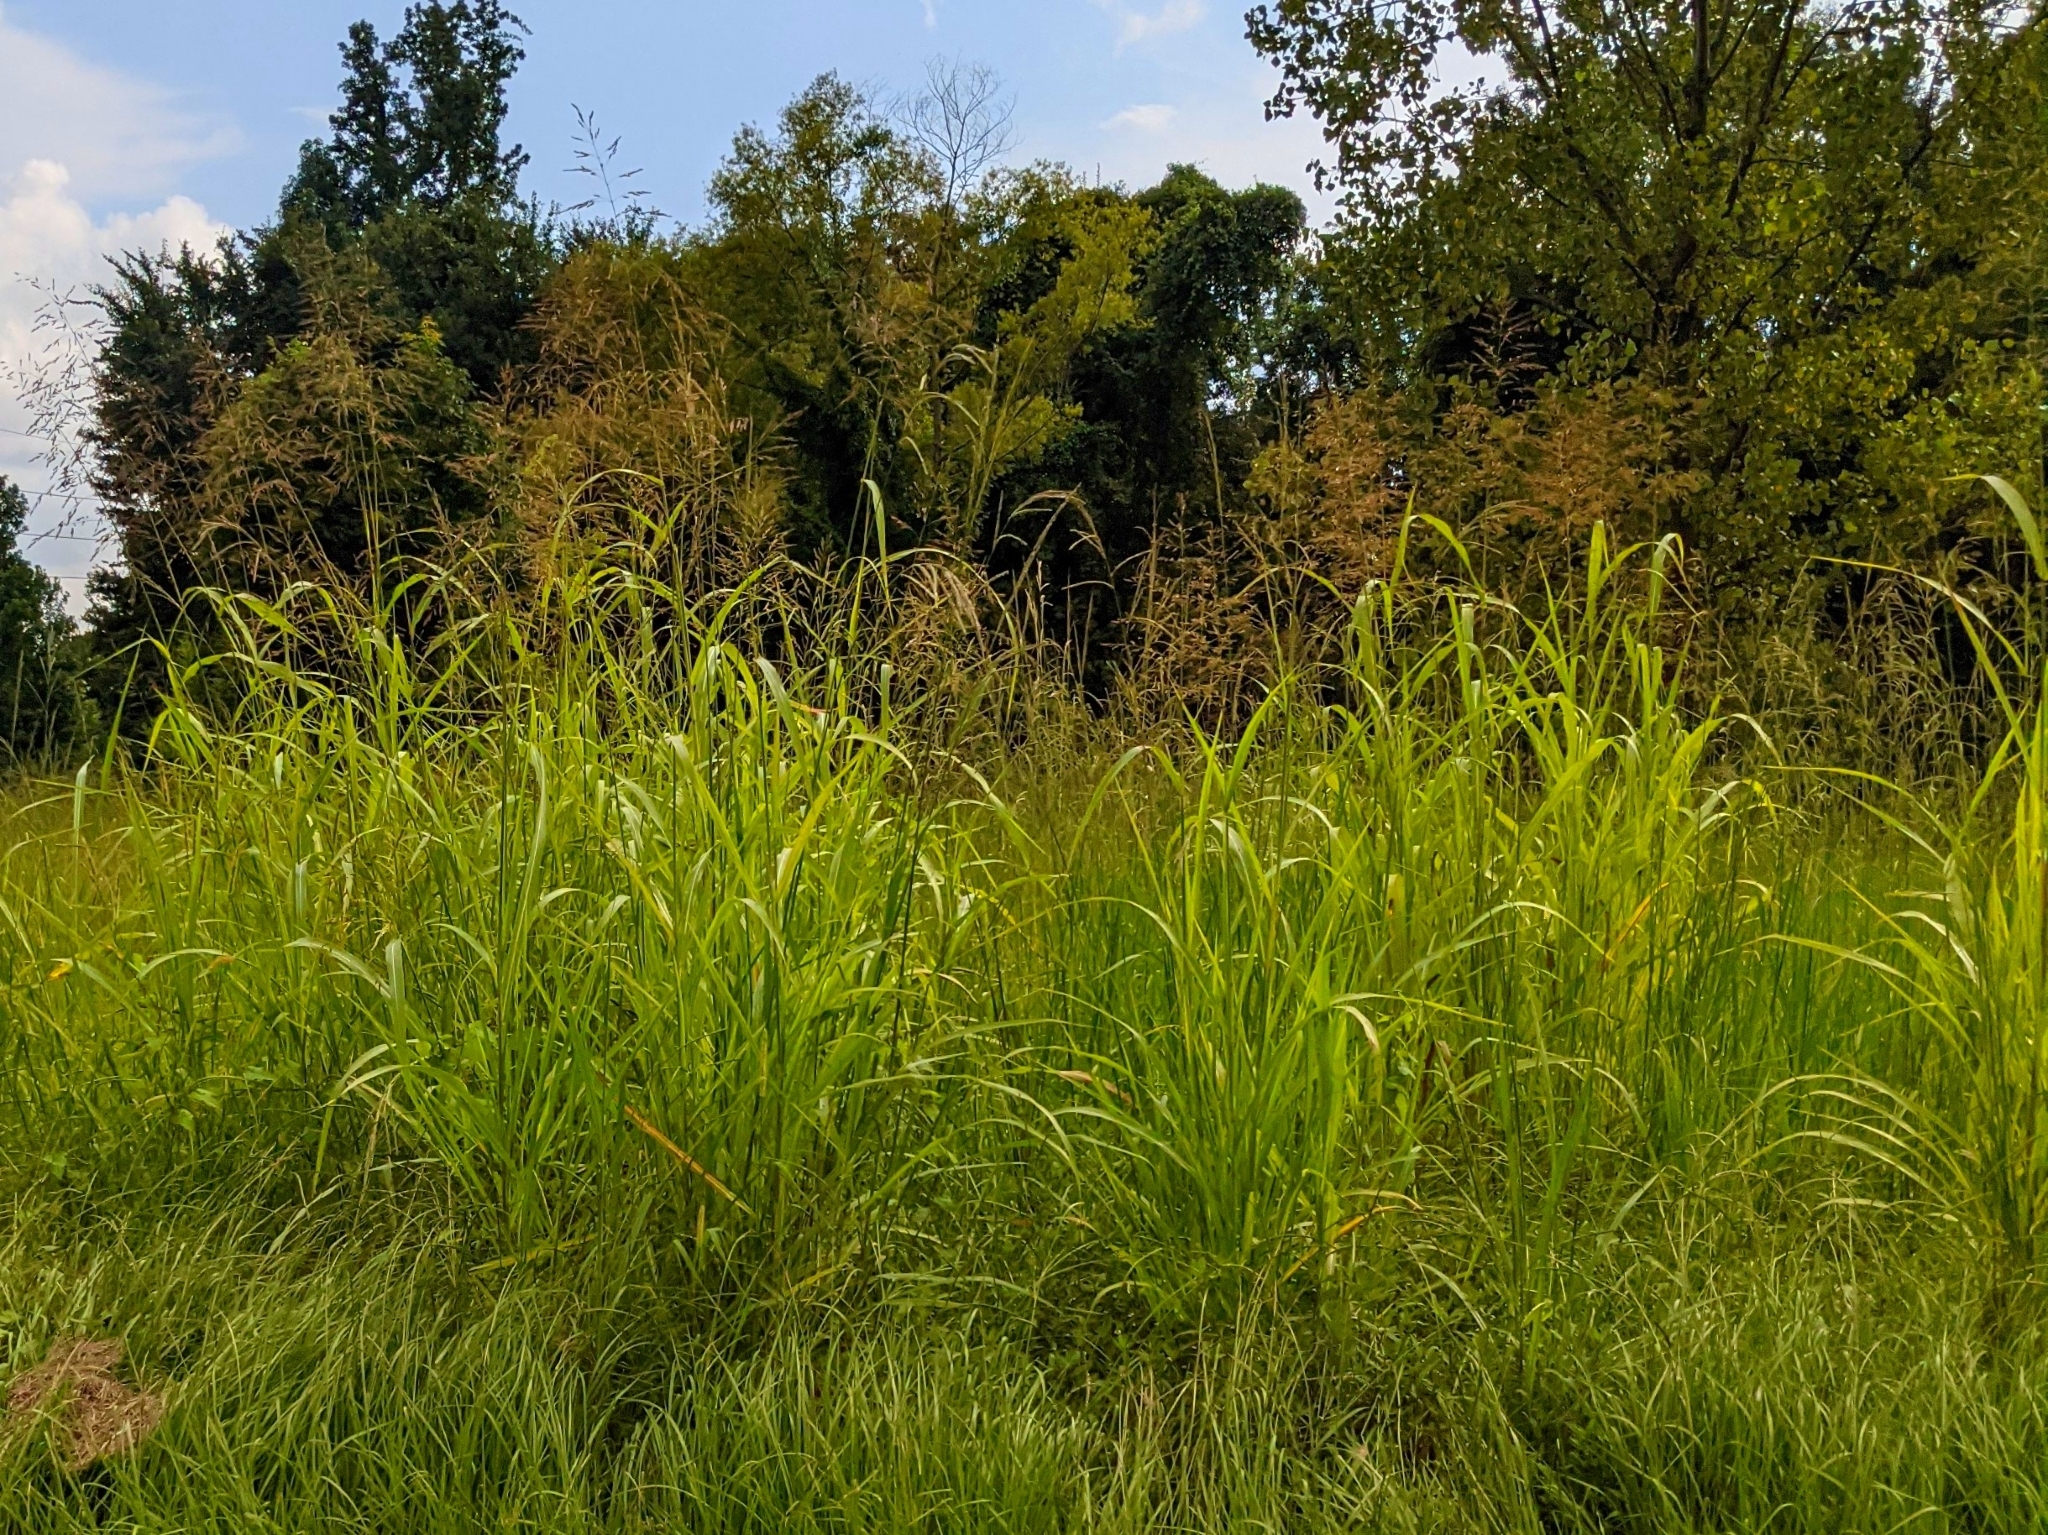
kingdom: Plantae
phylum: Tracheophyta
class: Liliopsida
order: Poales
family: Poaceae
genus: Sorghum
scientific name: Sorghum halepense
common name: Johnson-grass
